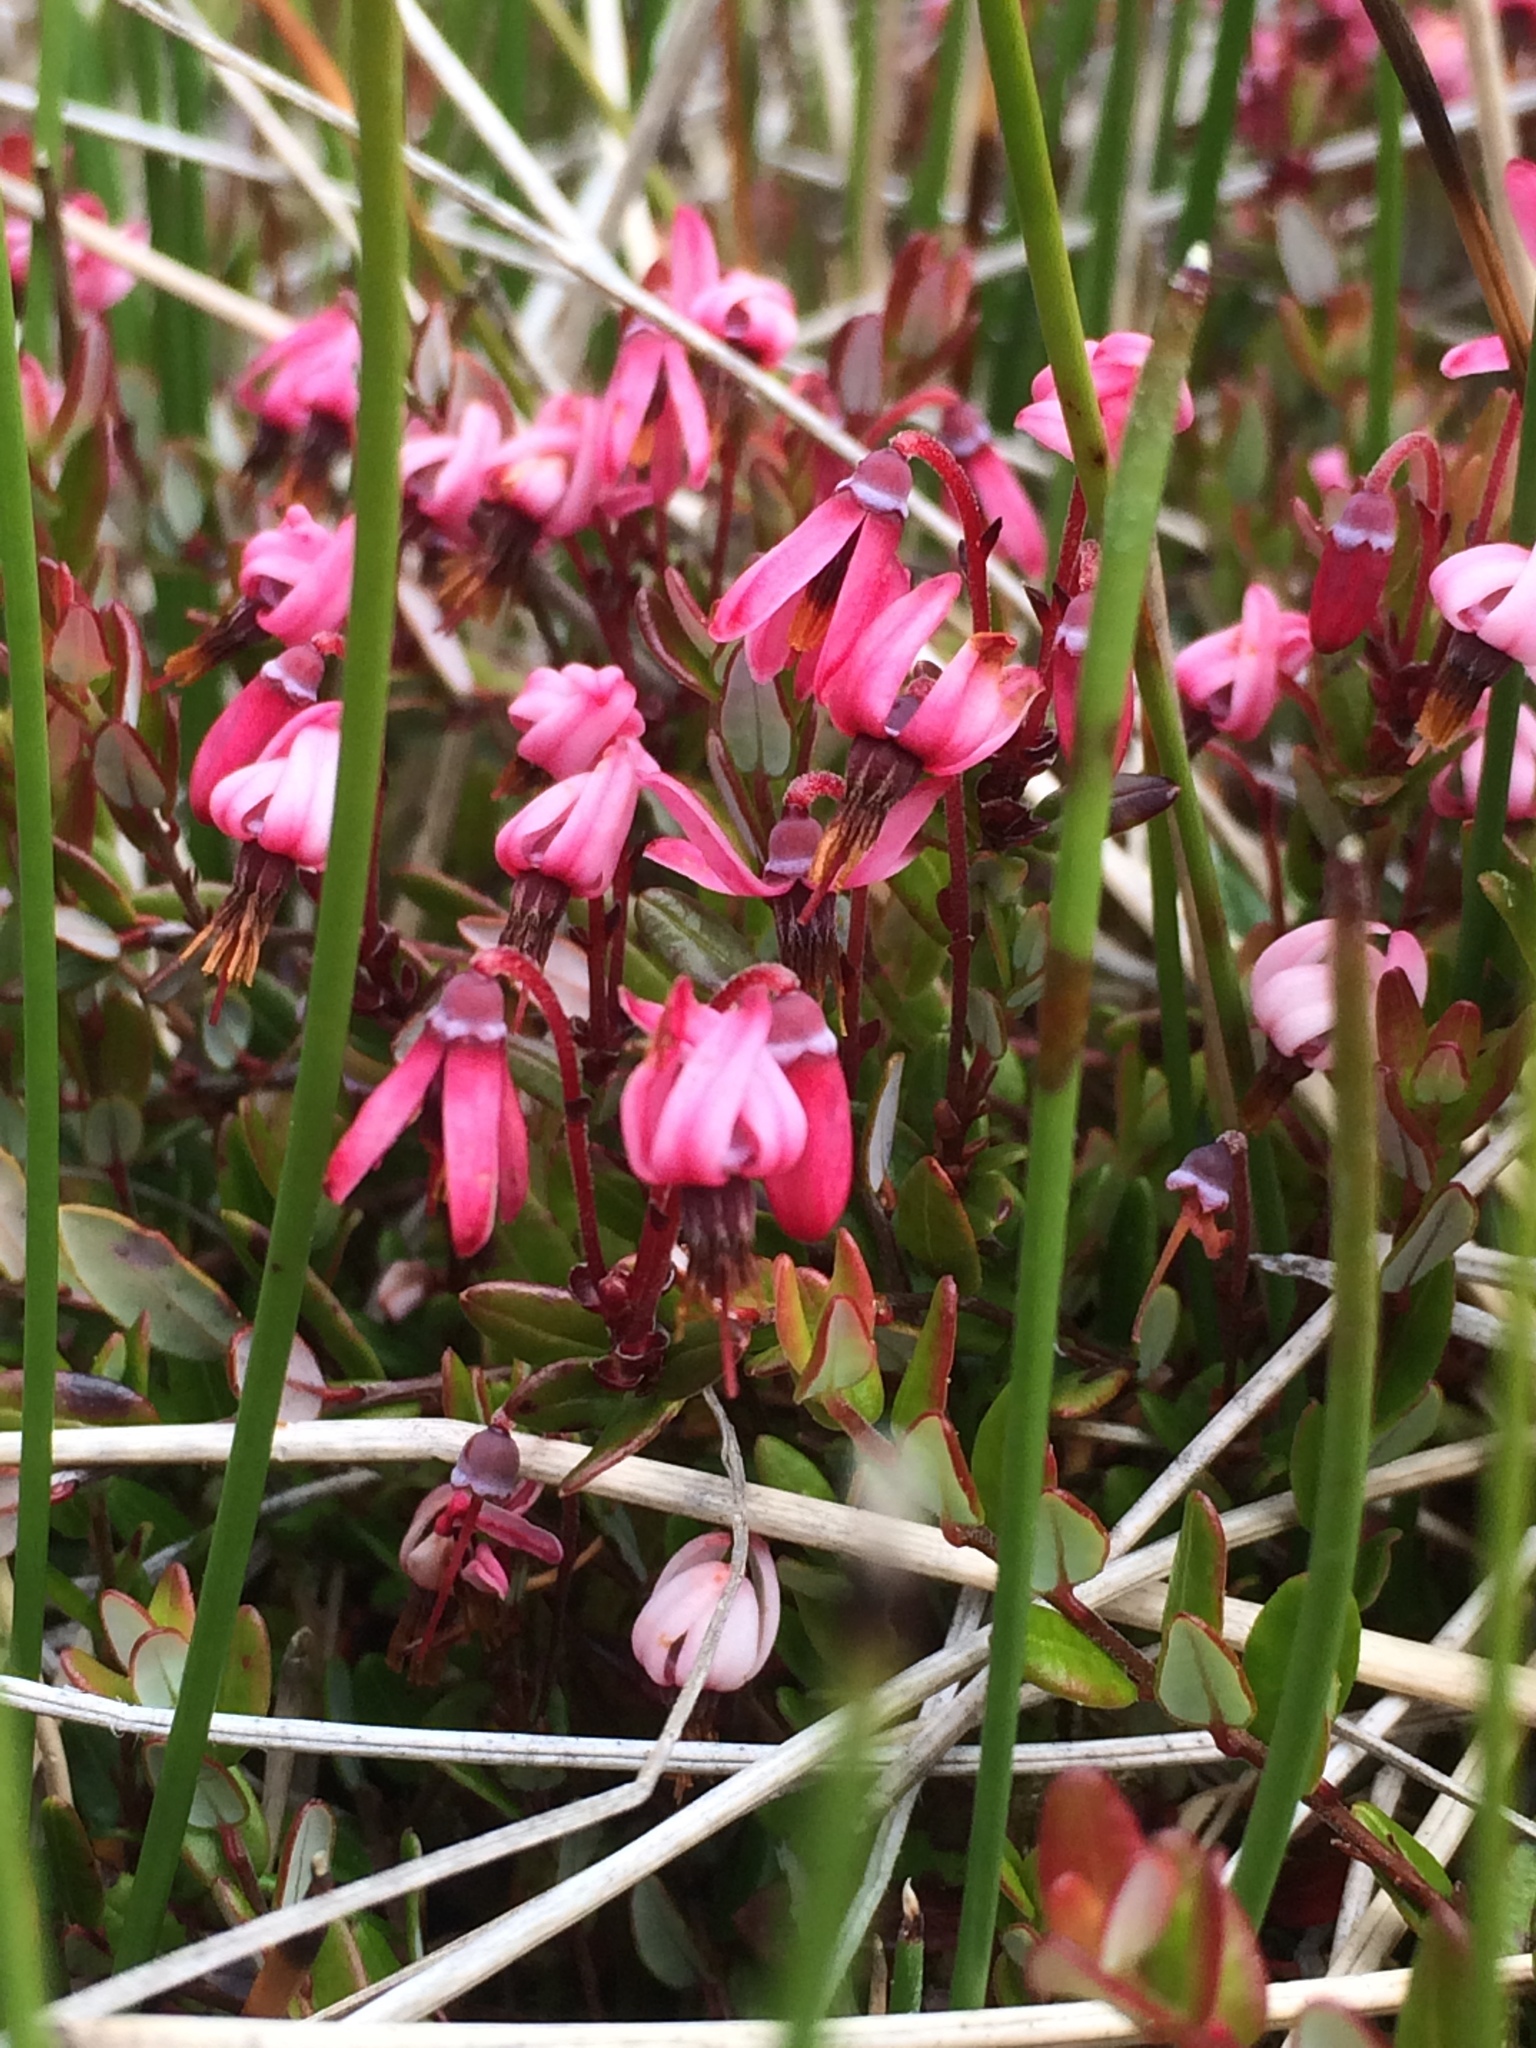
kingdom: Plantae
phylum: Tracheophyta
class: Magnoliopsida
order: Ericales
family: Ericaceae
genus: Vaccinium
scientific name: Vaccinium oxycoccos
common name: Cranberry
